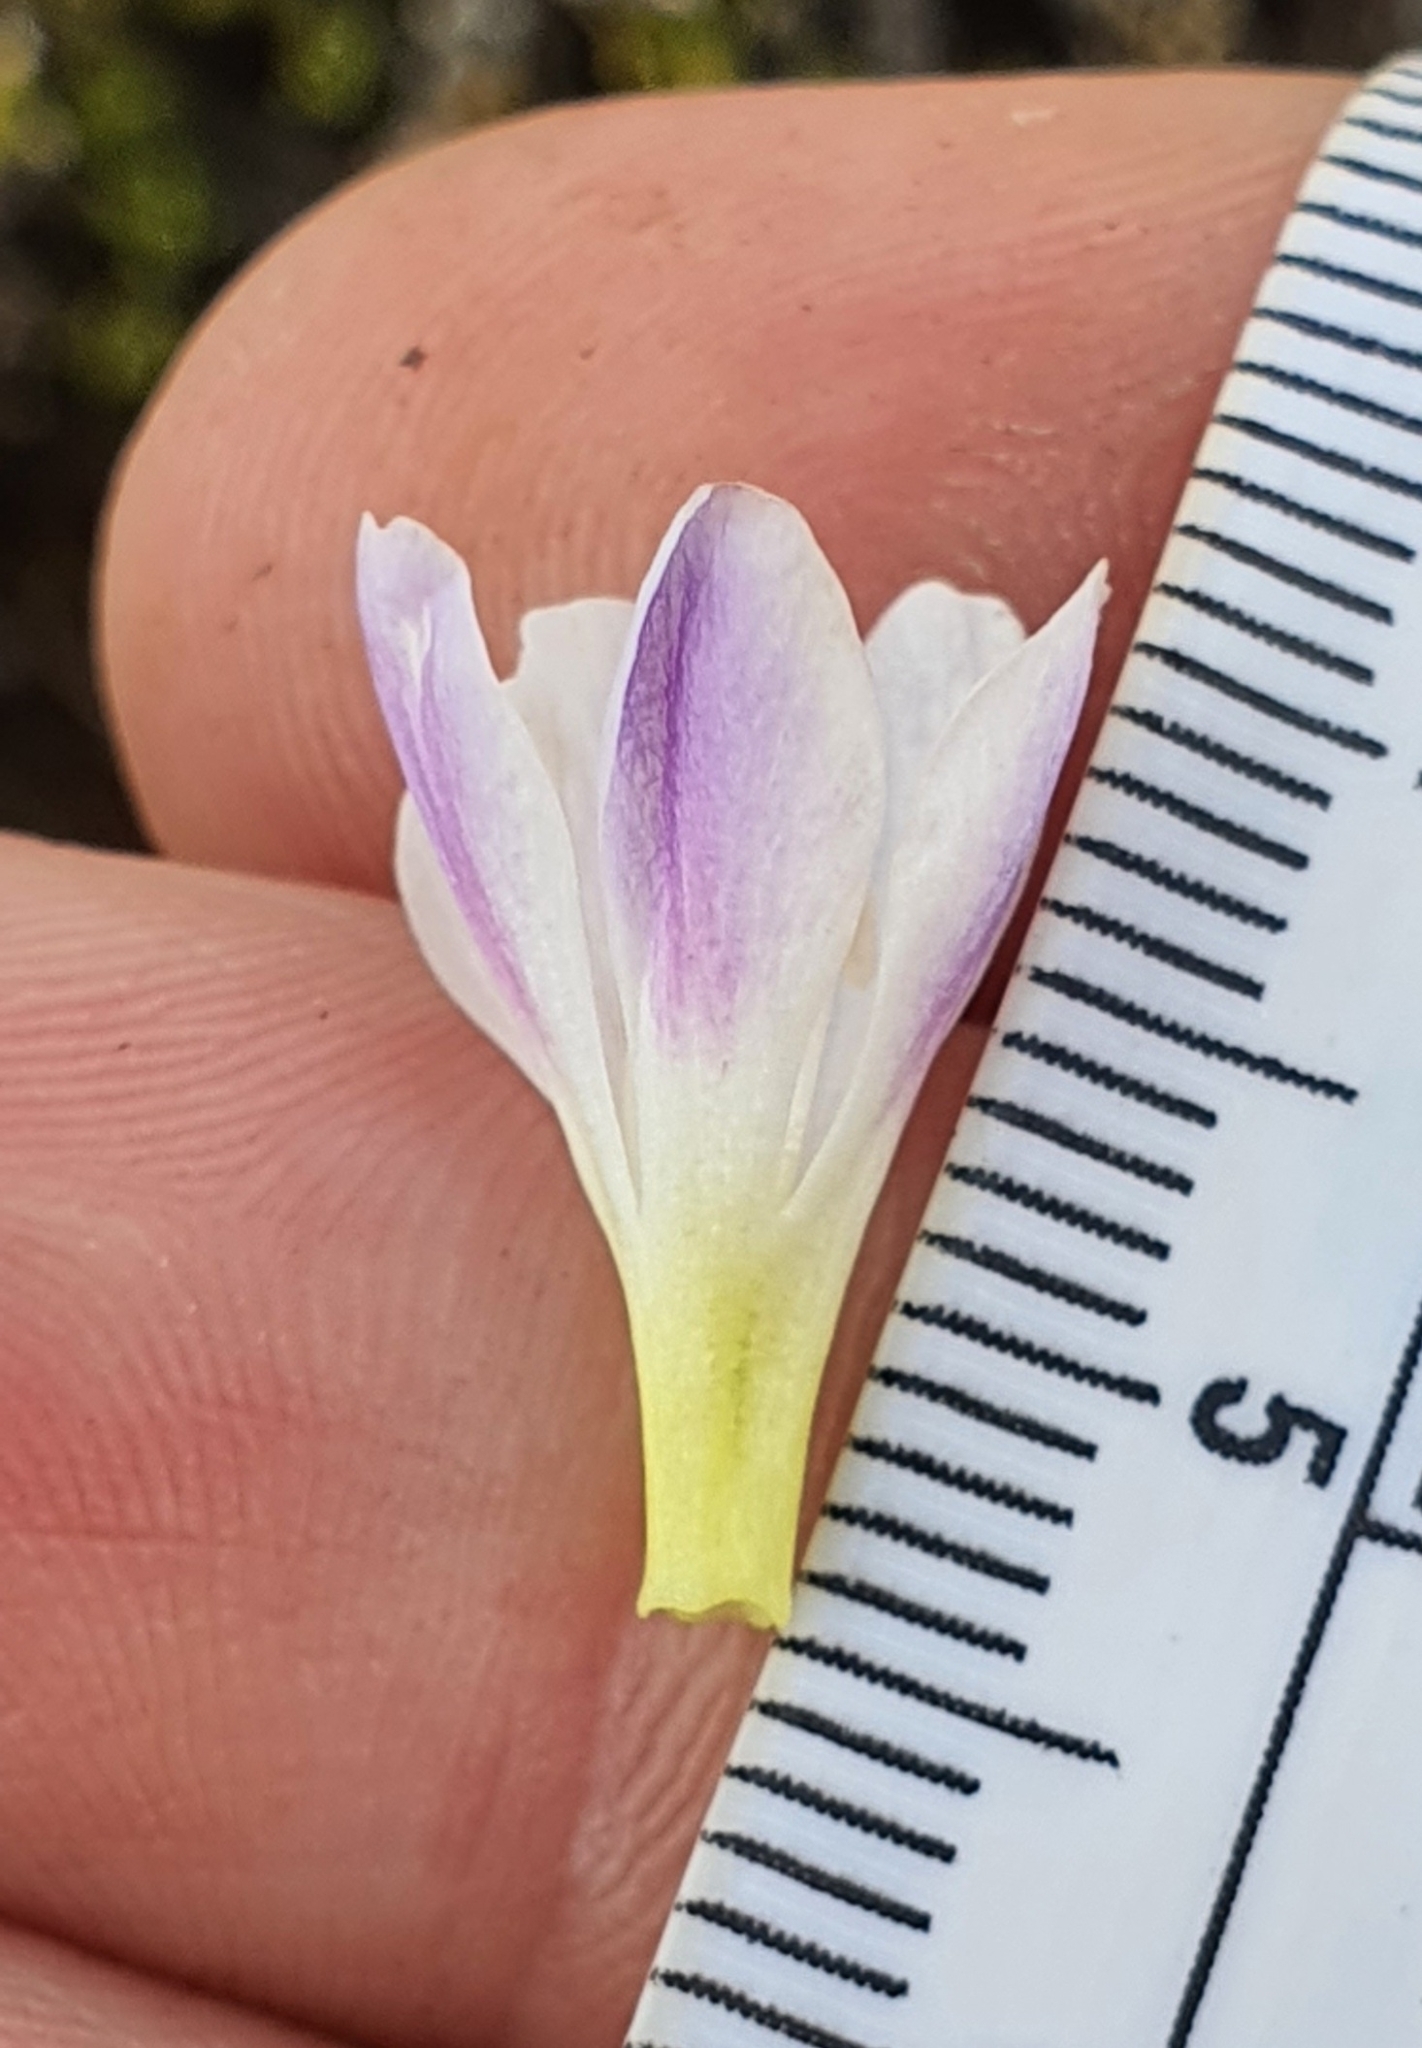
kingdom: Plantae
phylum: Tracheophyta
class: Magnoliopsida
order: Lamiales
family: Plantaginaceae
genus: Veronica
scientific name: Veronica densifolia
